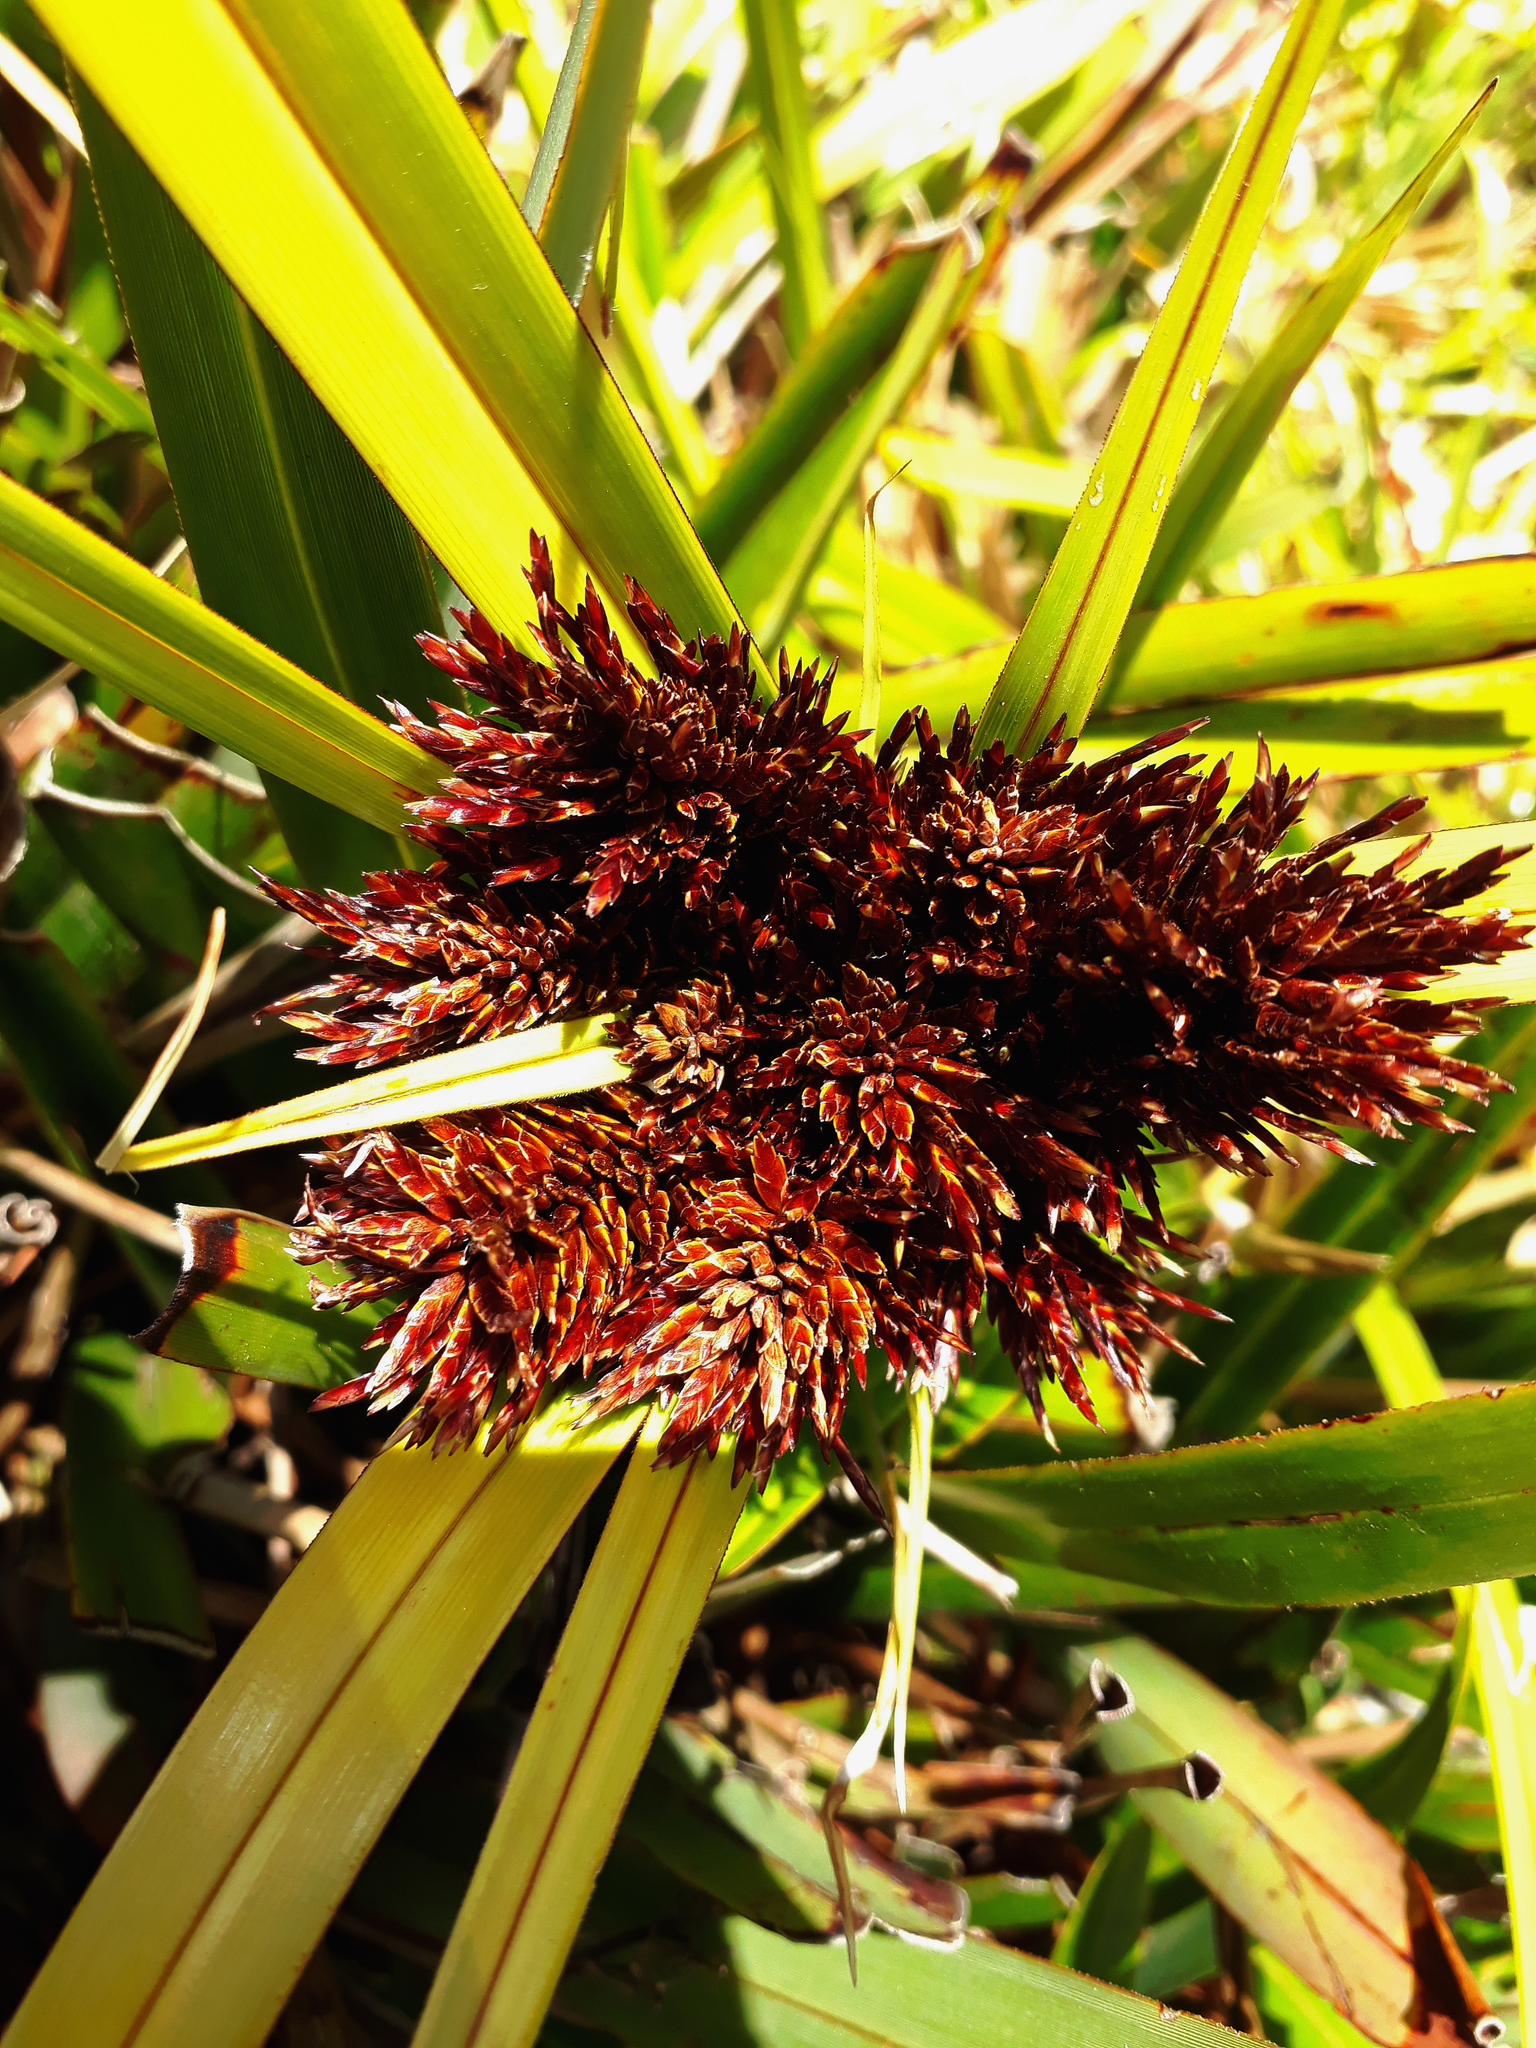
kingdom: Plantae
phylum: Tracheophyta
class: Liliopsida
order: Poales
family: Cyperaceae
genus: Cyperus
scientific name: Cyperus ustulatus
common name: Giant umbrella-sedge
